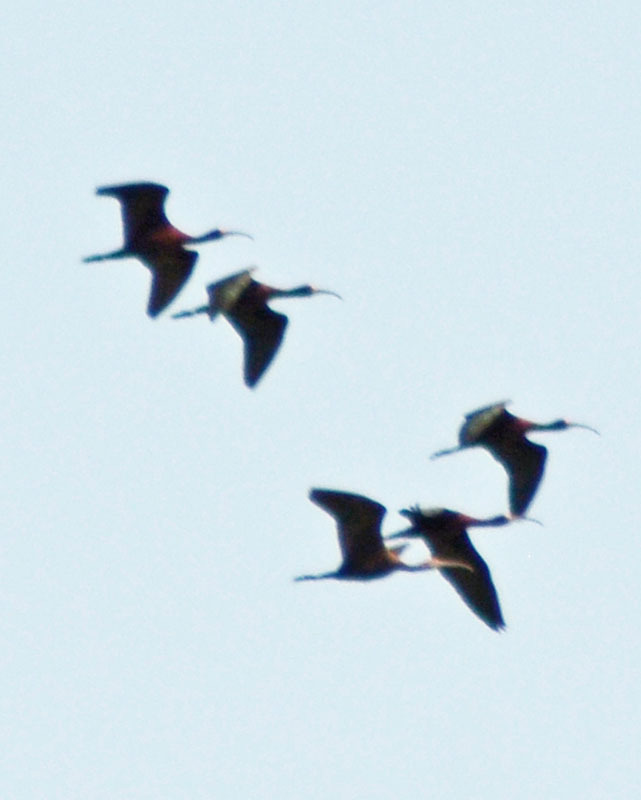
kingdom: Animalia
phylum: Chordata
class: Aves
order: Pelecaniformes
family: Threskiornithidae
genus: Plegadis
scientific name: Plegadis chihi
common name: White-faced ibis
